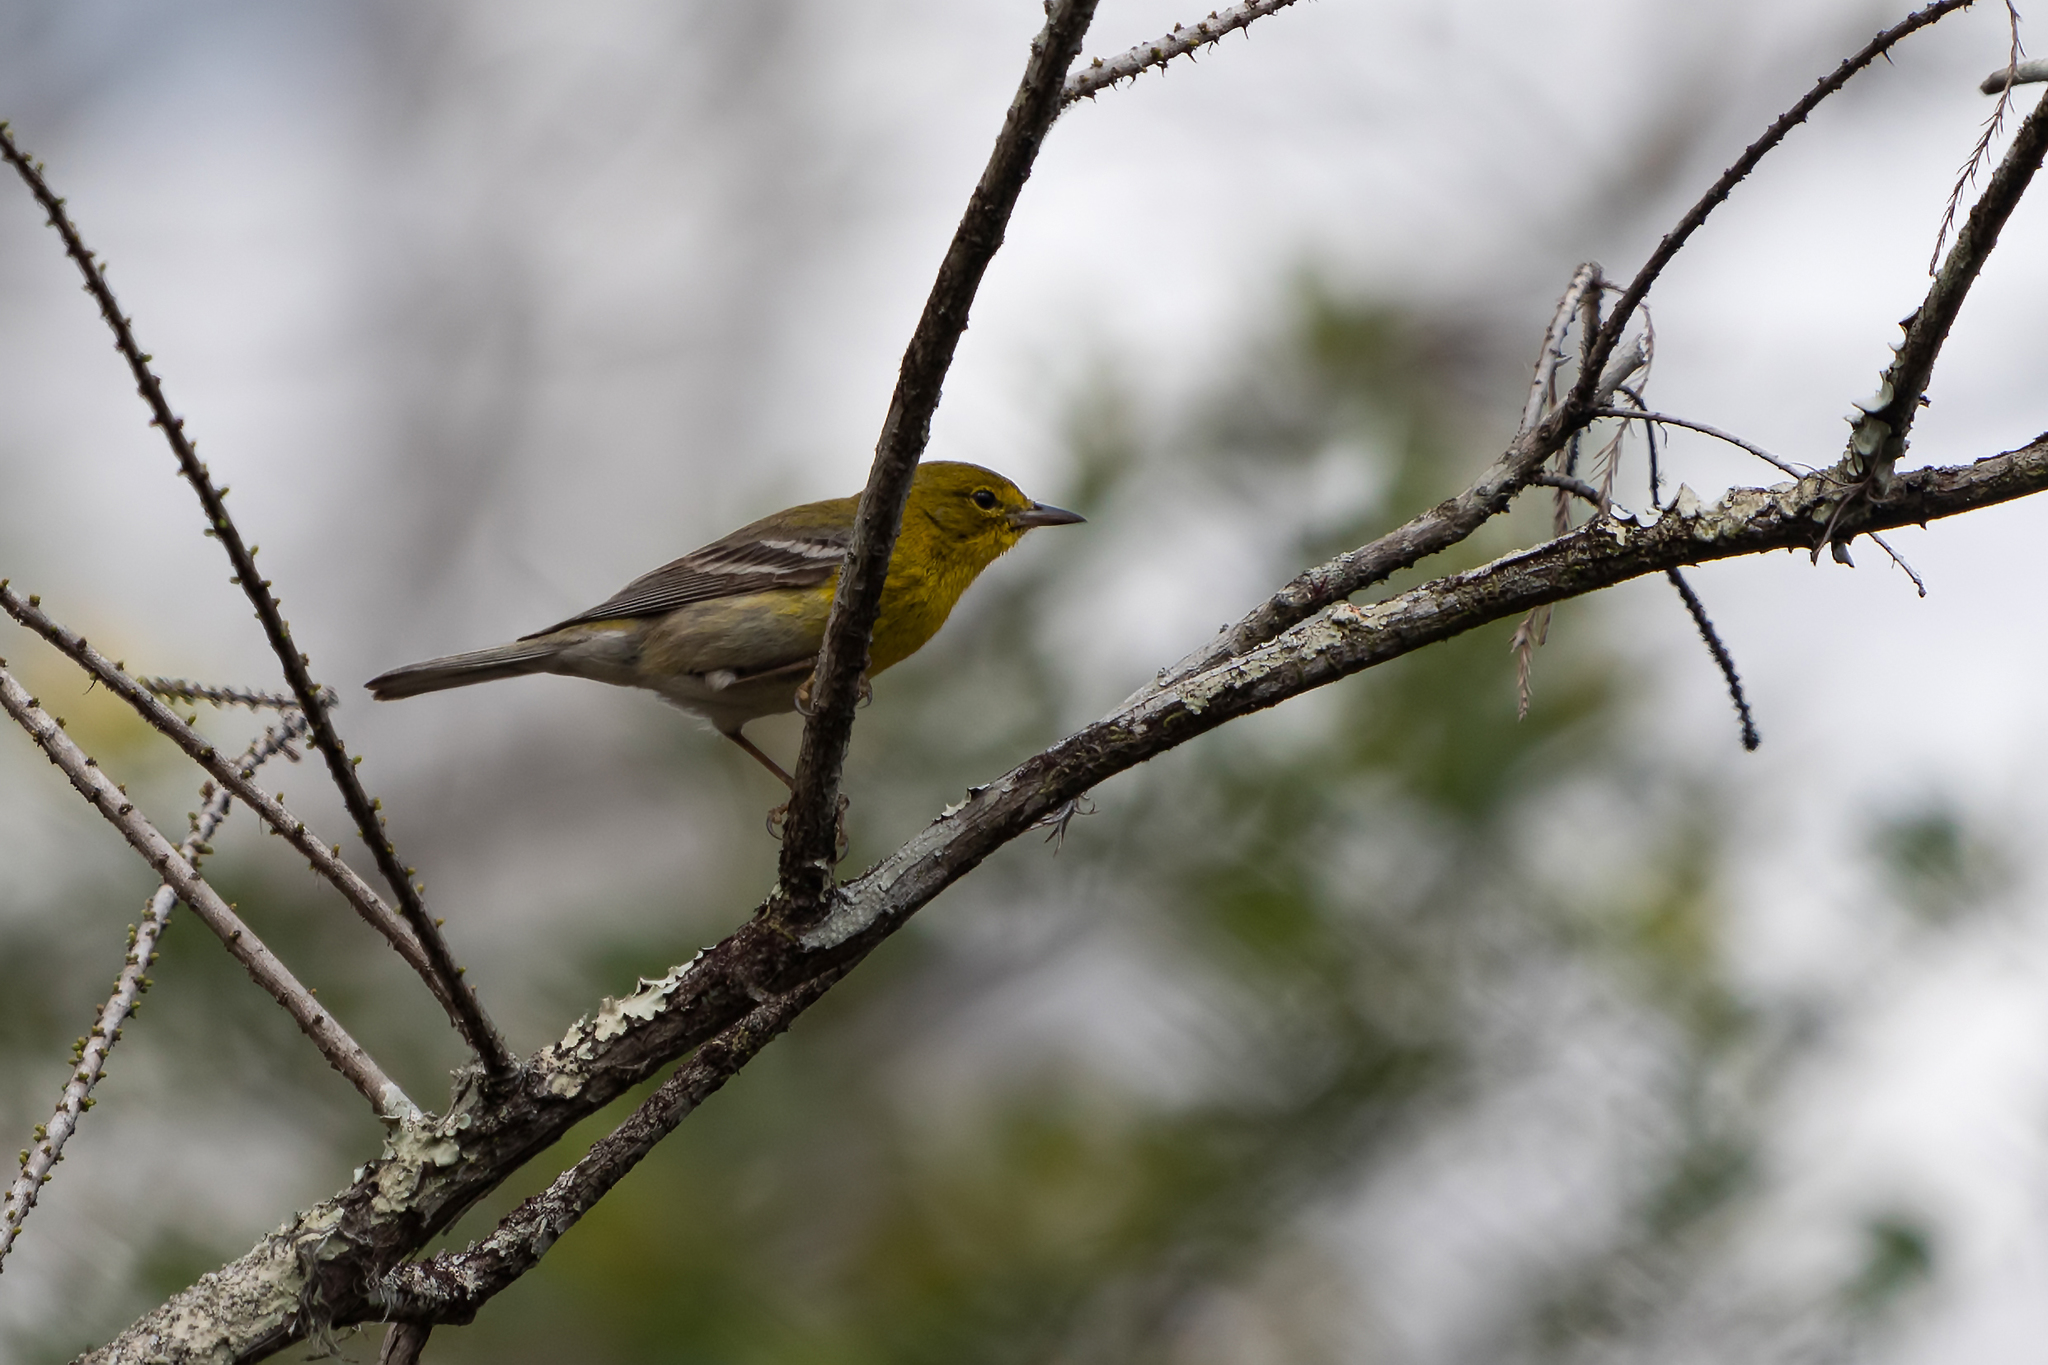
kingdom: Animalia
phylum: Chordata
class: Aves
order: Passeriformes
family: Parulidae
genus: Setophaga
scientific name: Setophaga pinus
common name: Pine warbler
